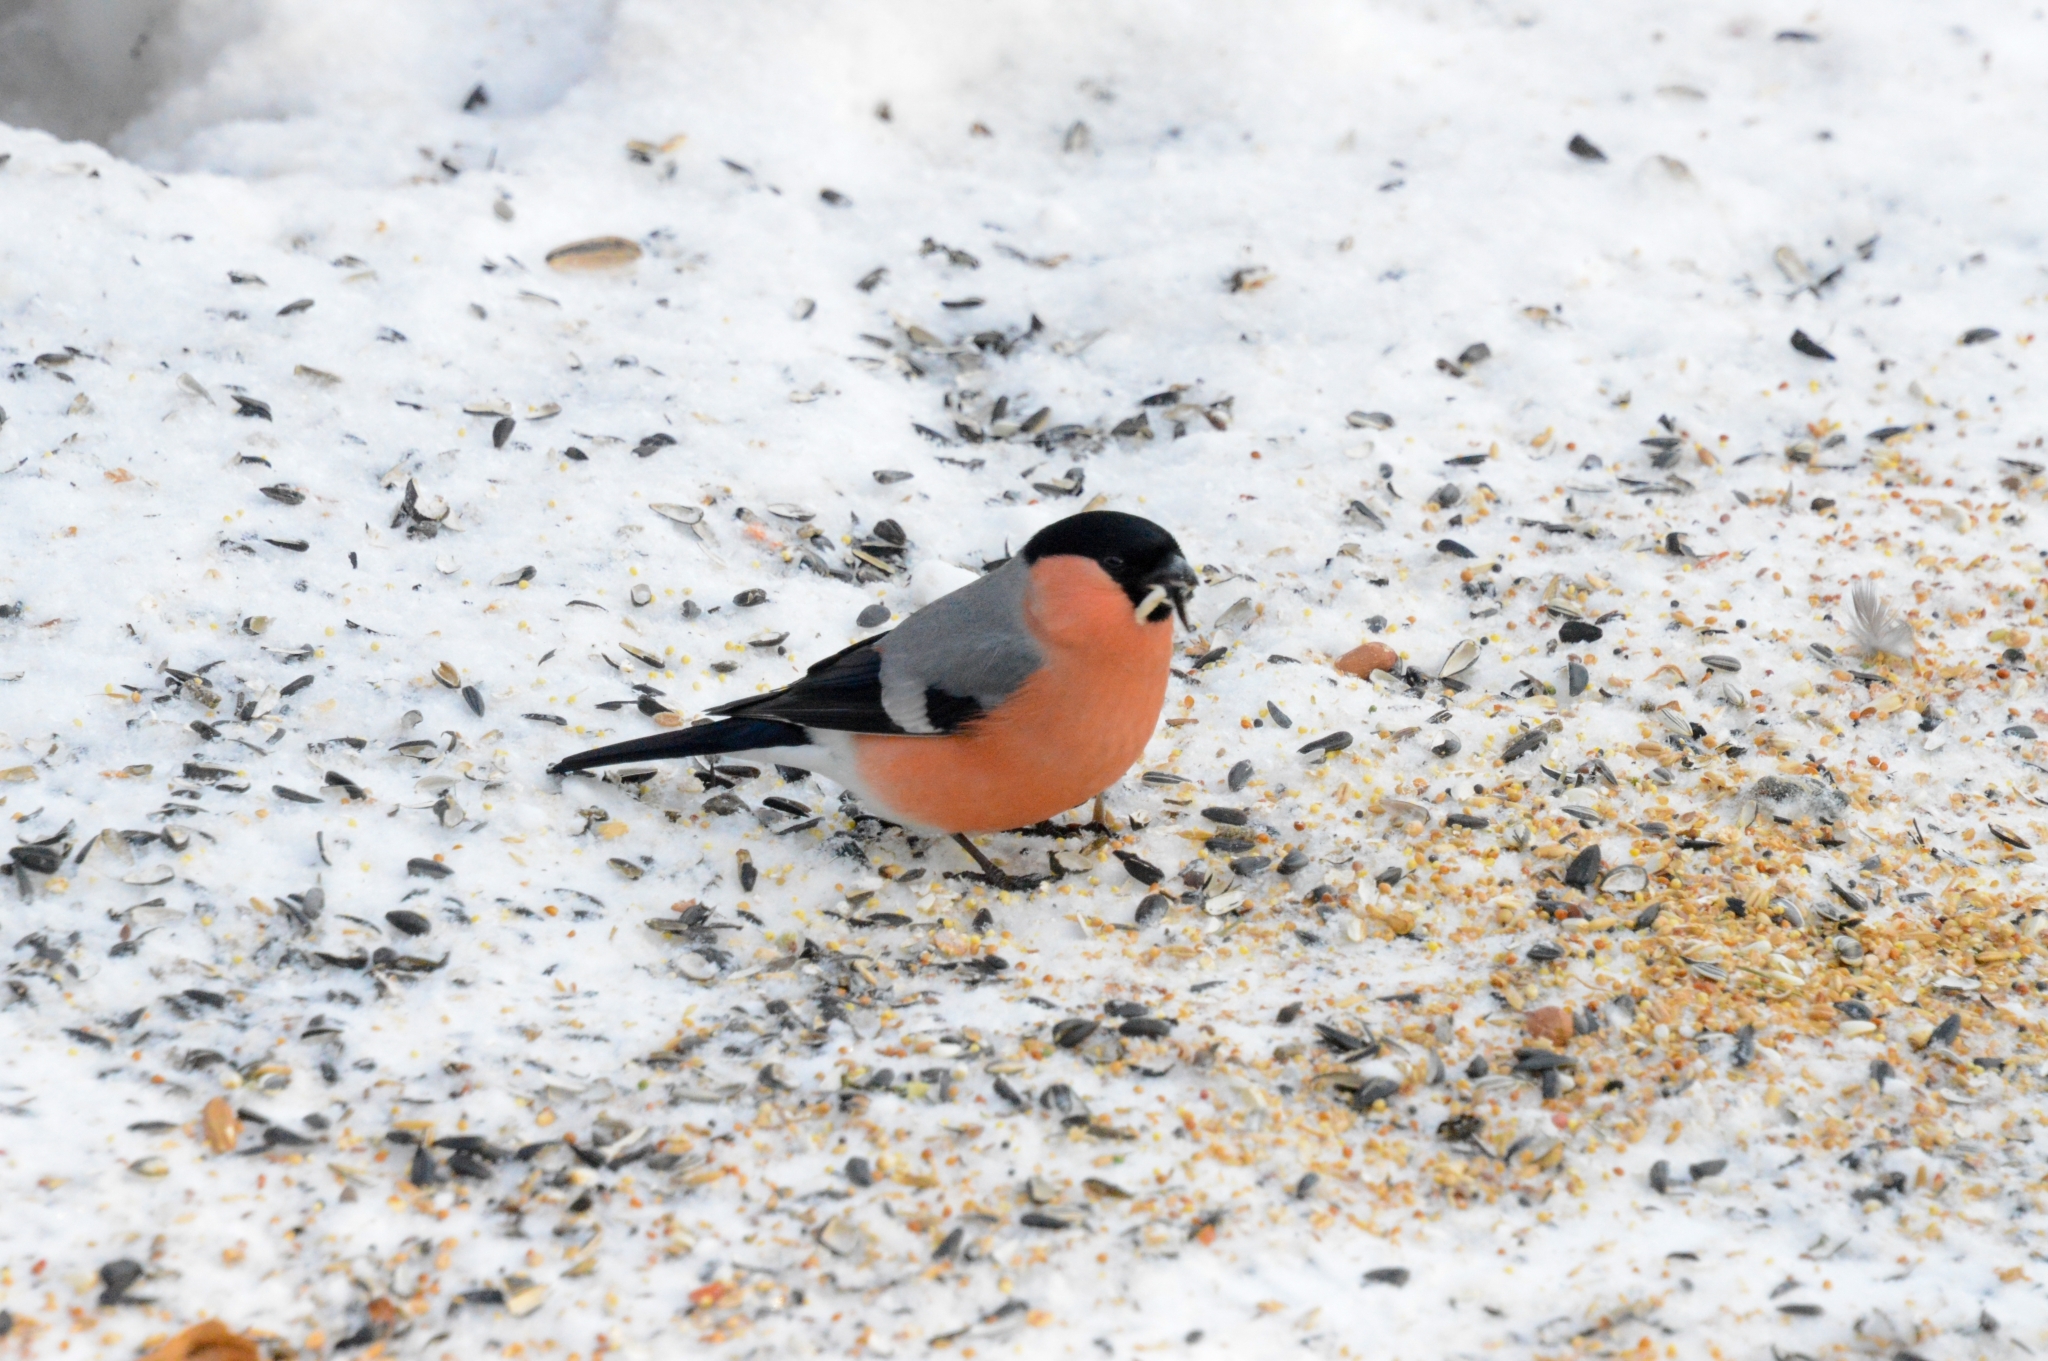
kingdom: Animalia
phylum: Chordata
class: Aves
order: Passeriformes
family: Fringillidae
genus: Pyrrhula
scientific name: Pyrrhula pyrrhula
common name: Eurasian bullfinch
